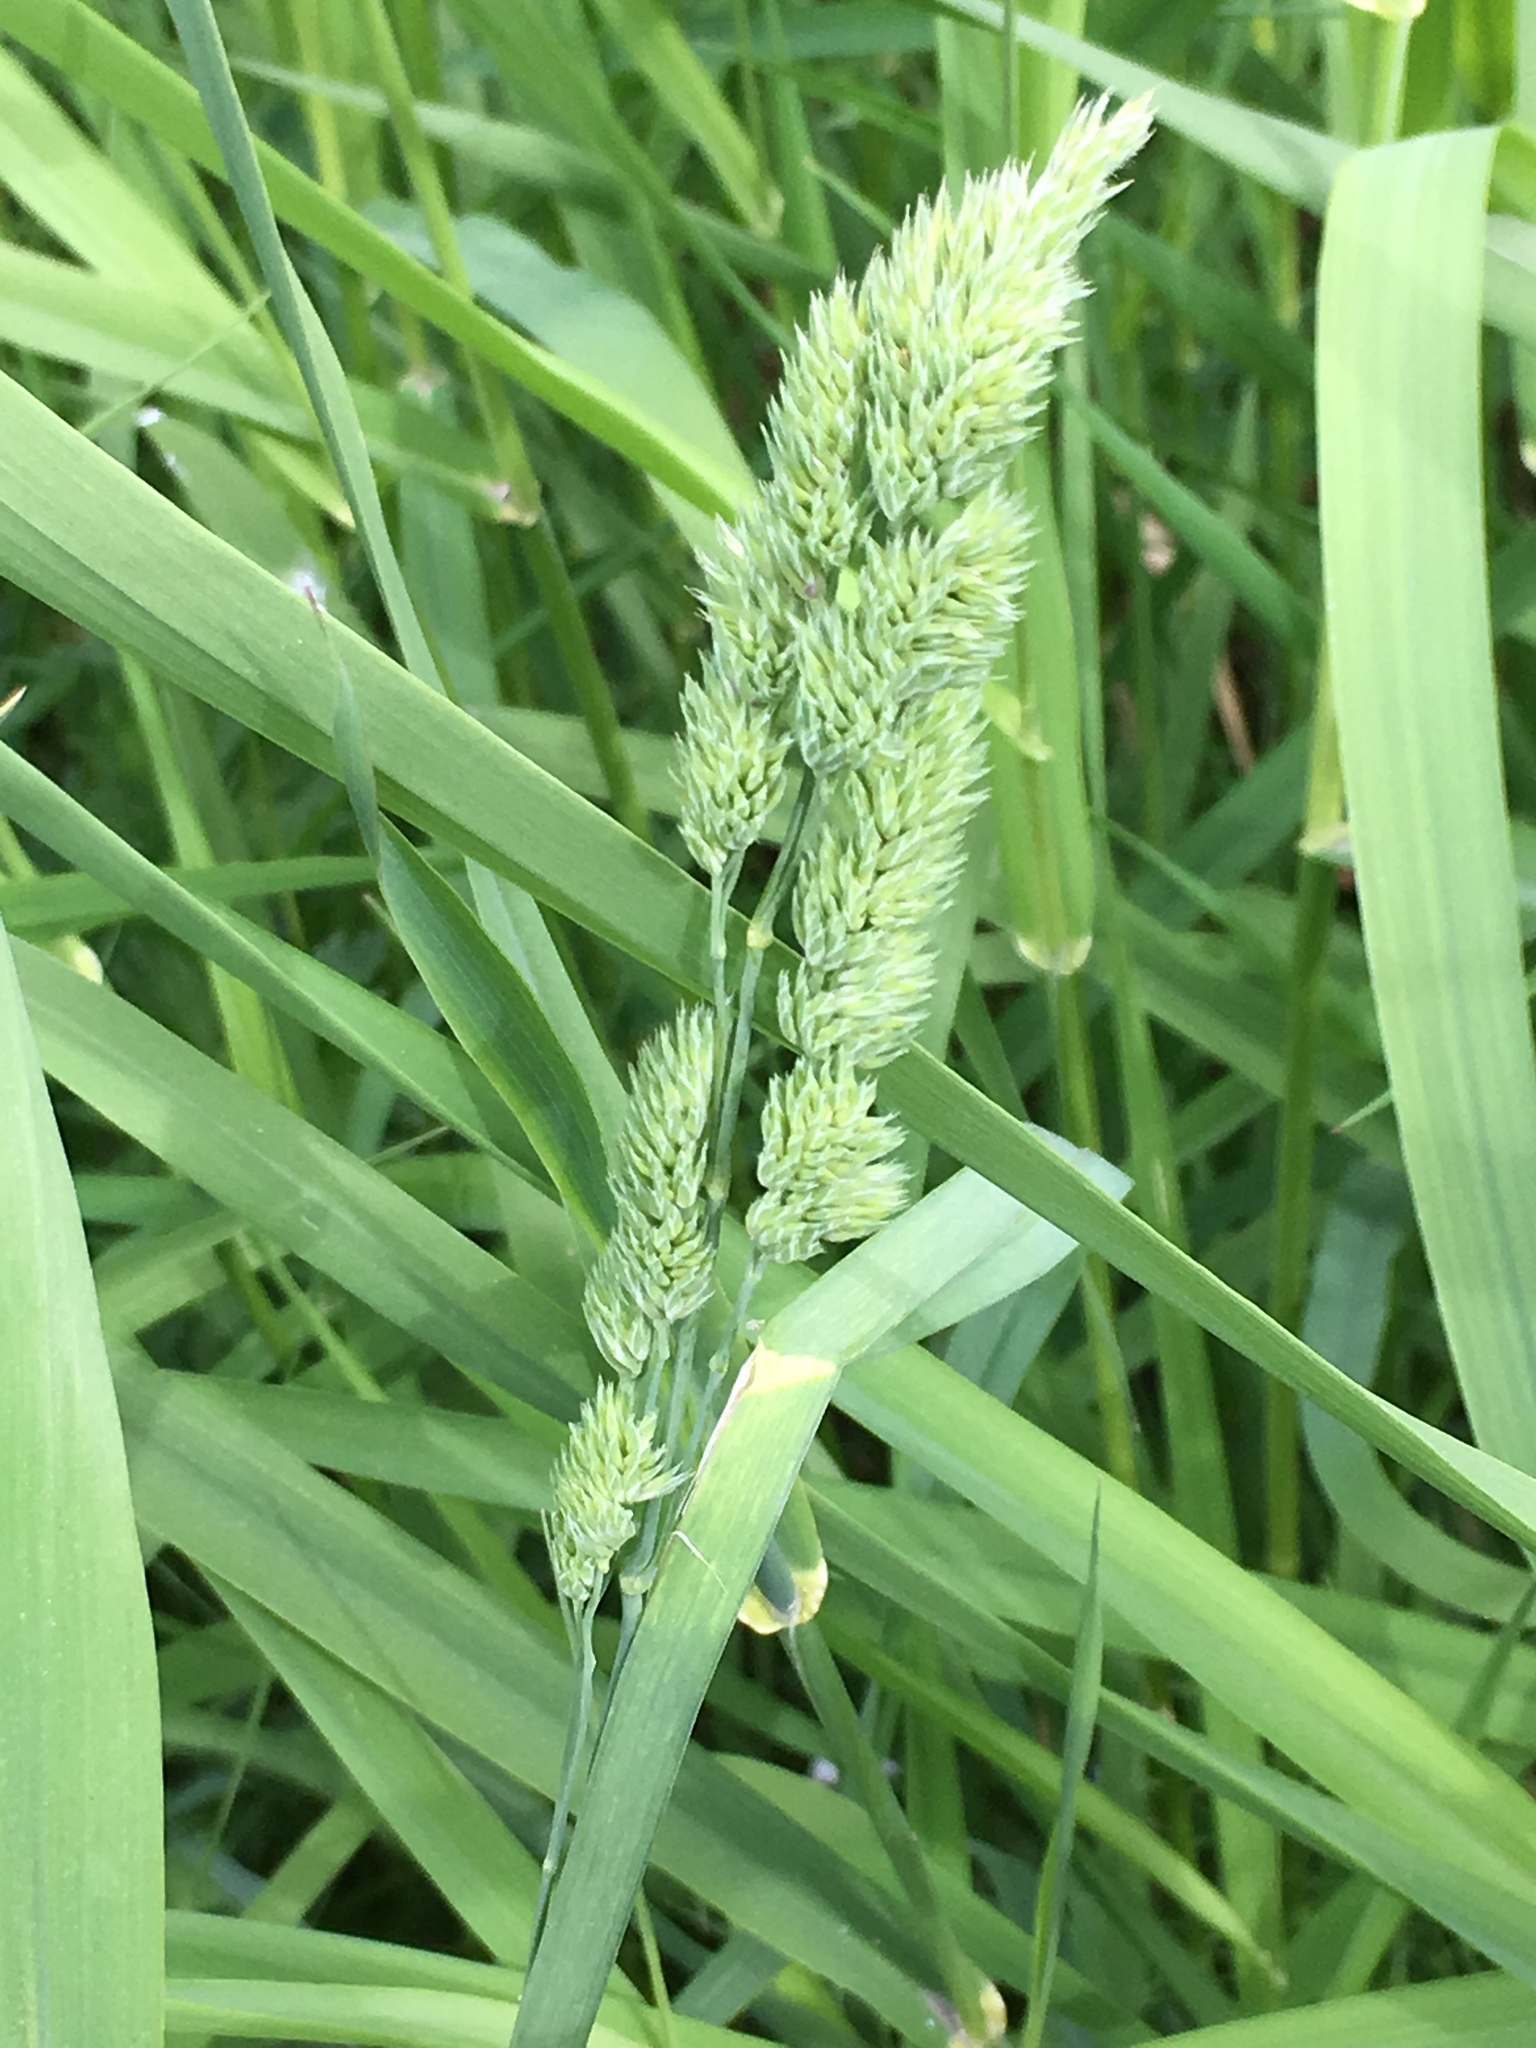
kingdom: Plantae
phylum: Tracheophyta
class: Liliopsida
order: Poales
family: Poaceae
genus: Dactylis
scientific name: Dactylis glomerata
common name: Orchardgrass
